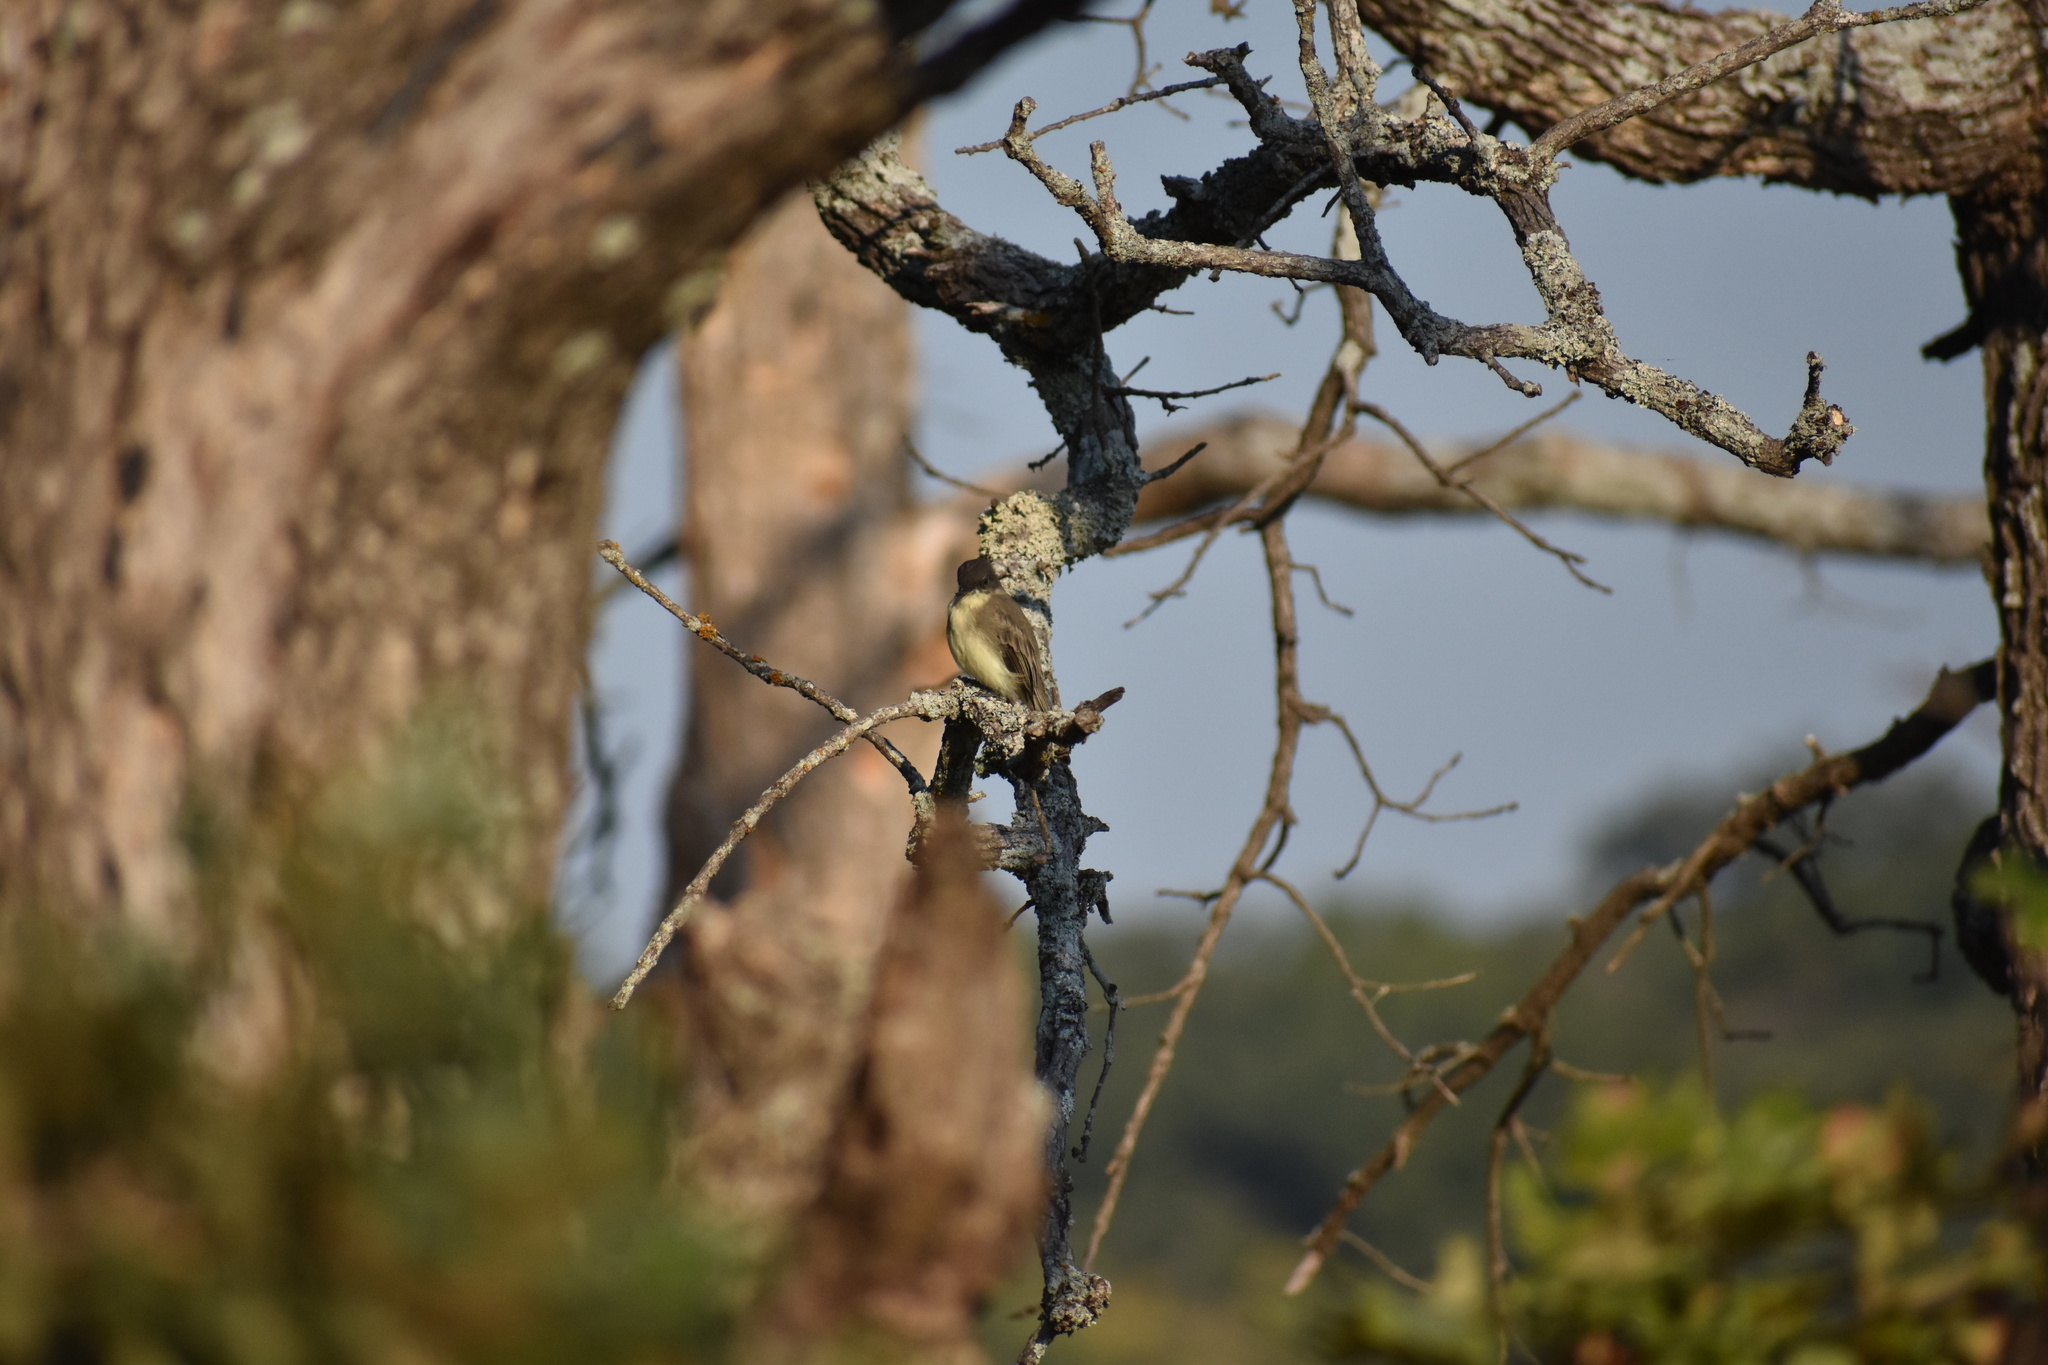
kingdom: Animalia
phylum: Chordata
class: Aves
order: Passeriformes
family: Tyrannidae
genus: Sayornis
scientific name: Sayornis phoebe
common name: Eastern phoebe
